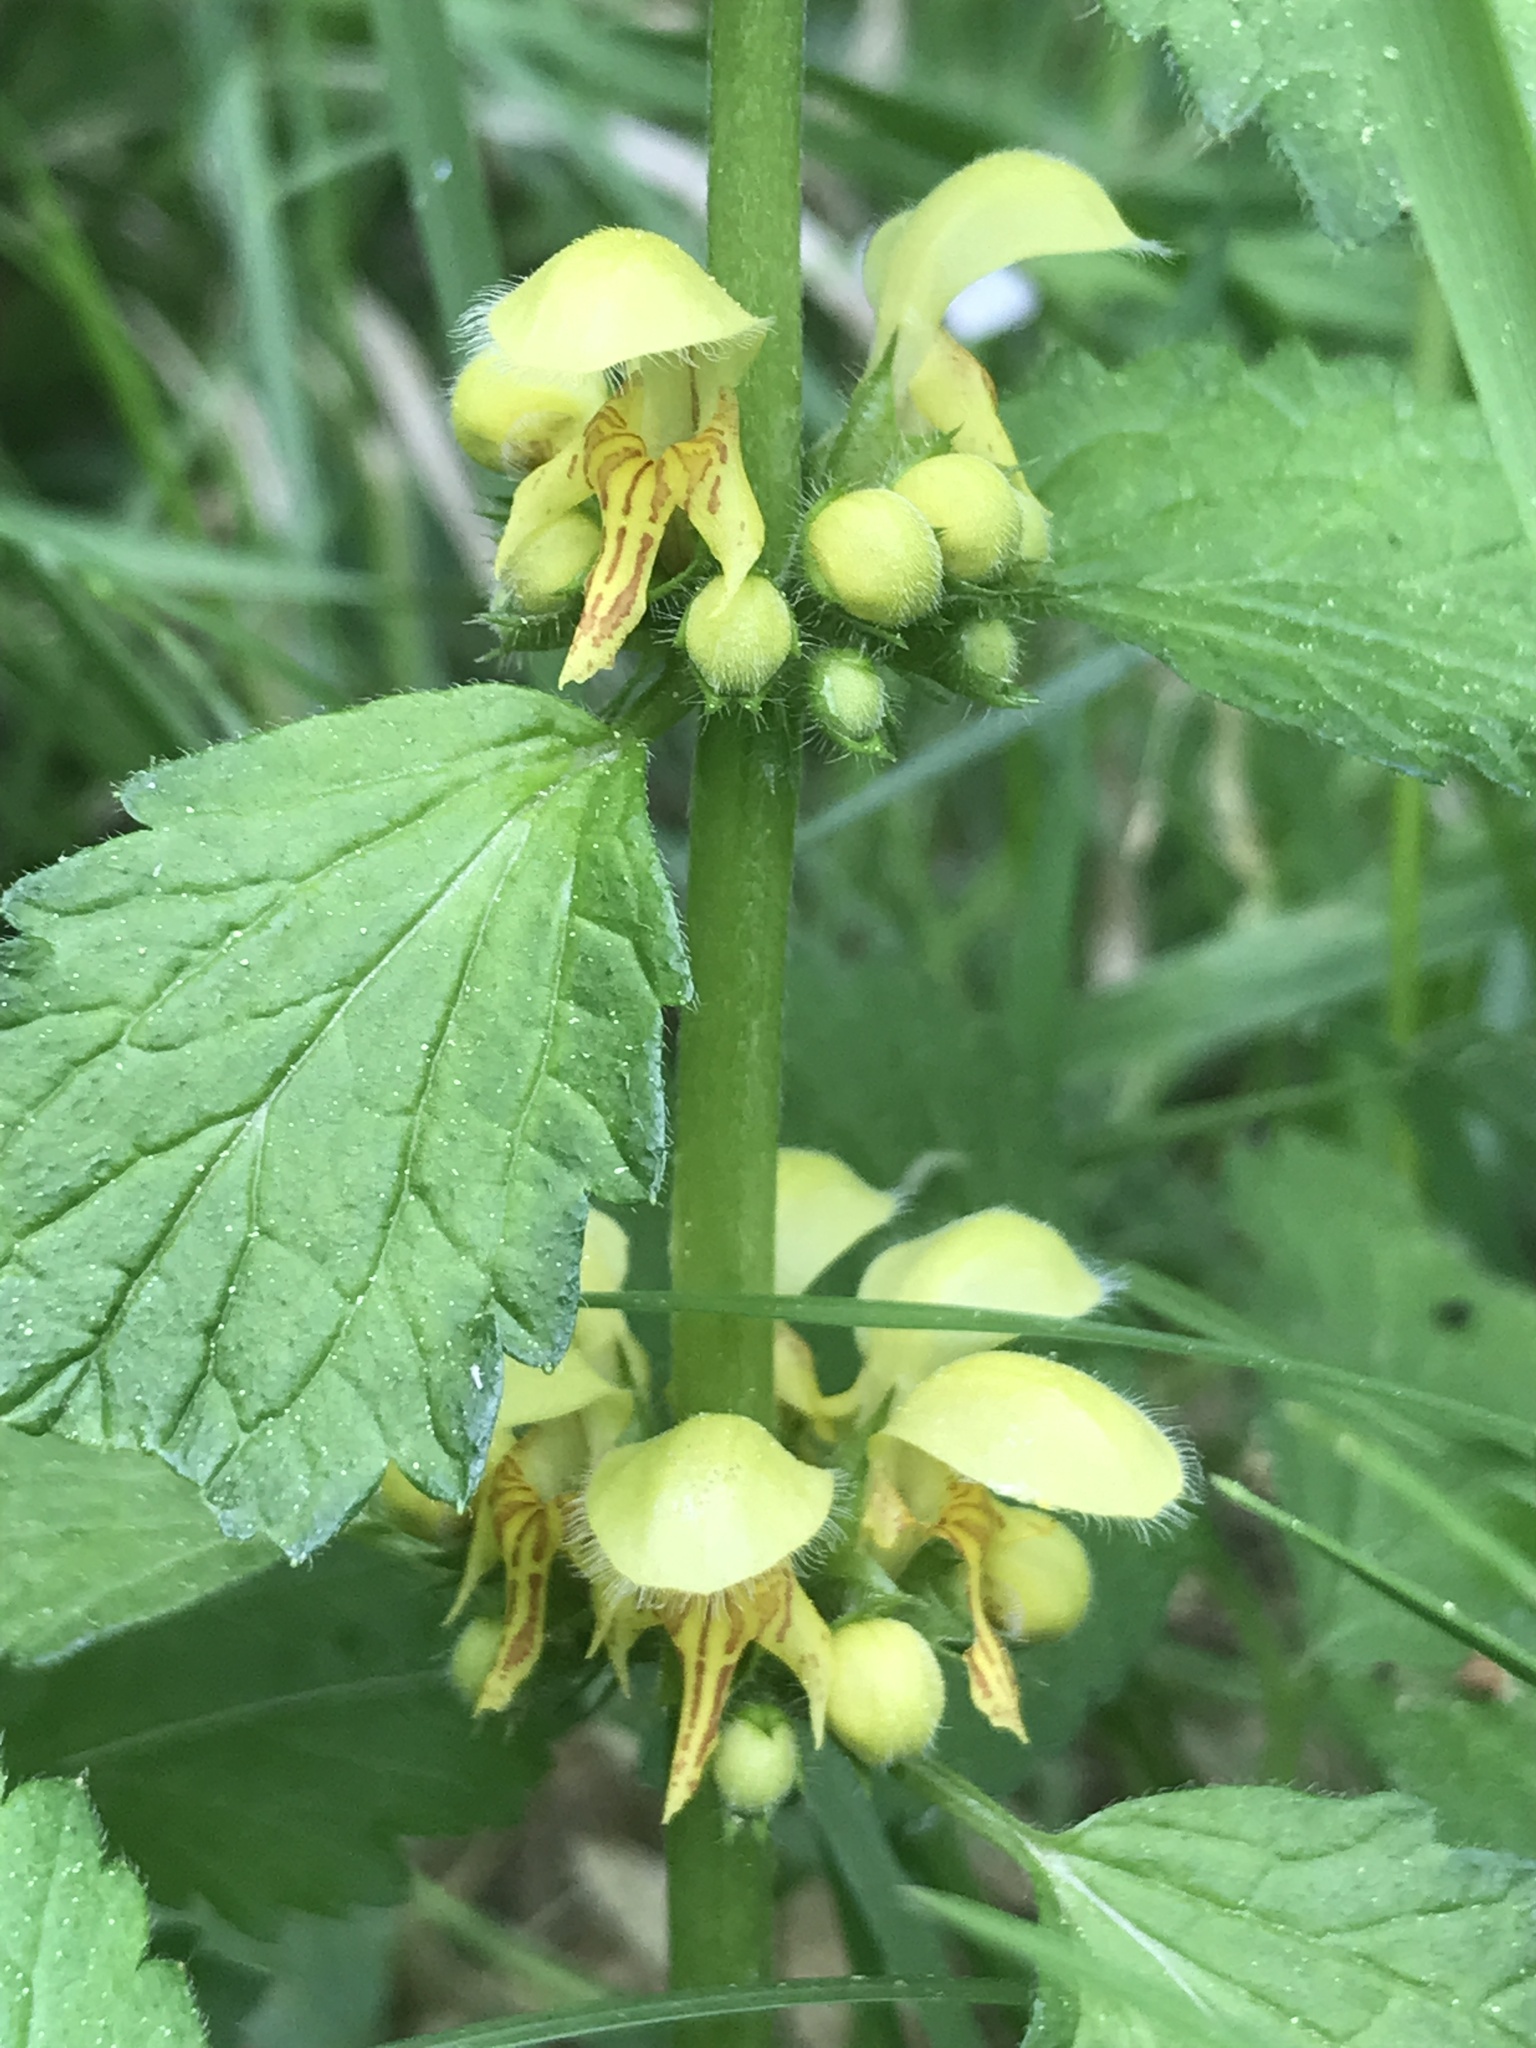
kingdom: Plantae
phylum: Tracheophyta
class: Magnoliopsida
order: Lamiales
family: Lamiaceae
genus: Lamium
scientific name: Lamium galeobdolon
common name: Yellow archangel
